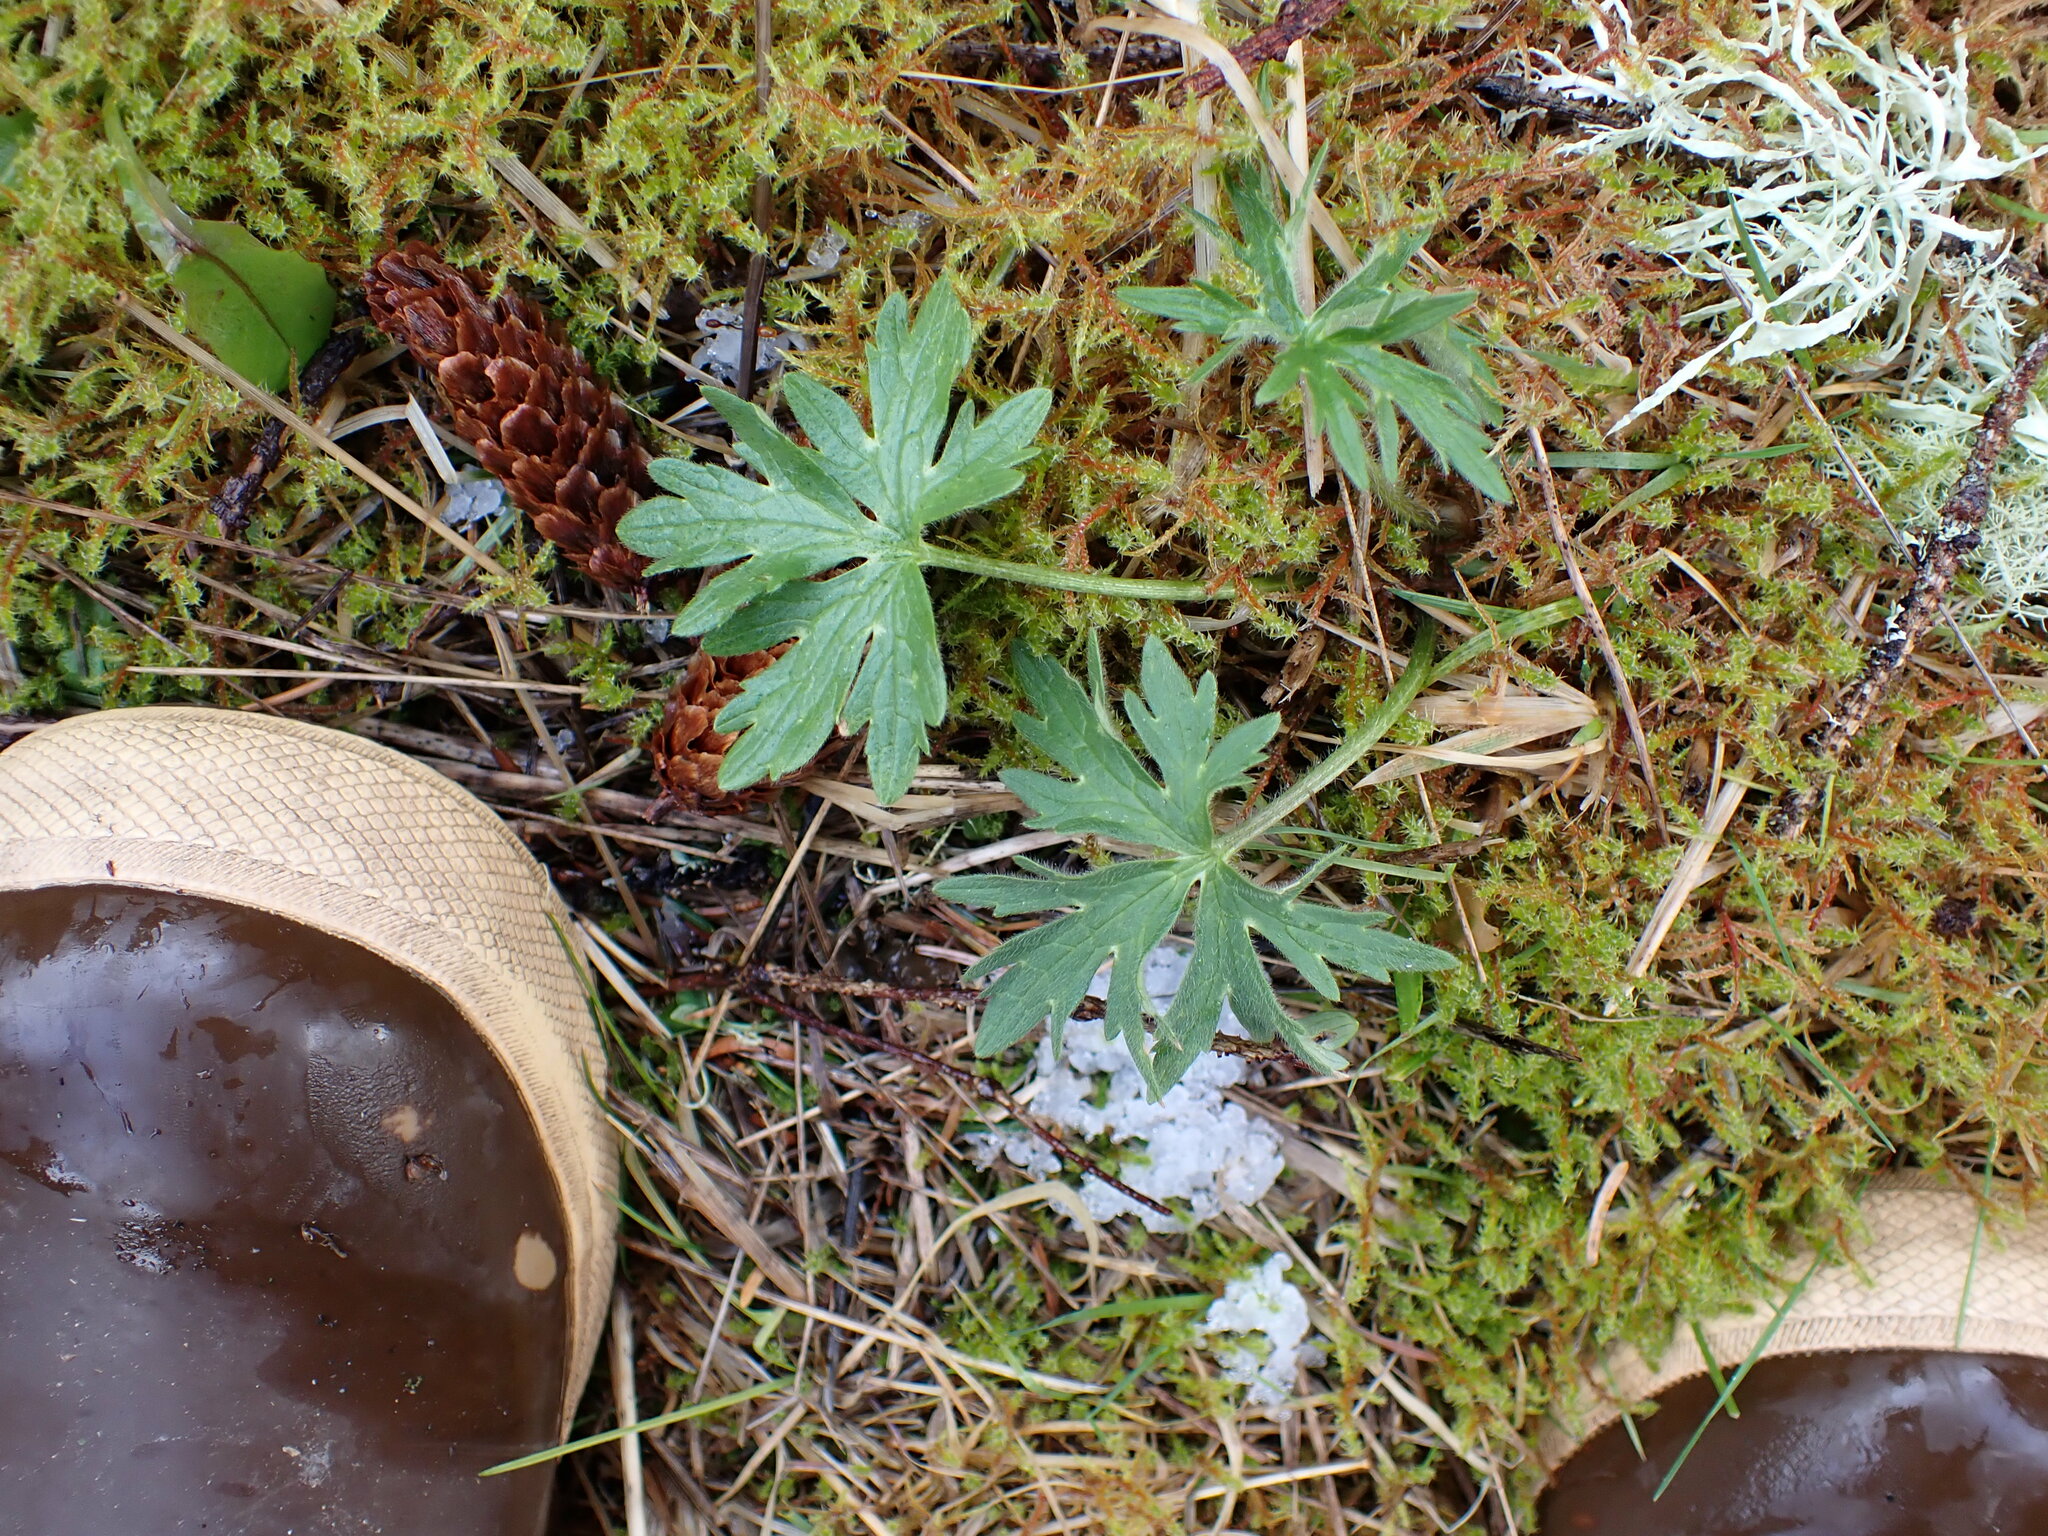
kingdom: Plantae
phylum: Tracheophyta
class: Magnoliopsida
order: Ranunculales
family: Ranunculaceae
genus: Ranunculus
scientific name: Ranunculus acris
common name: Meadow buttercup
